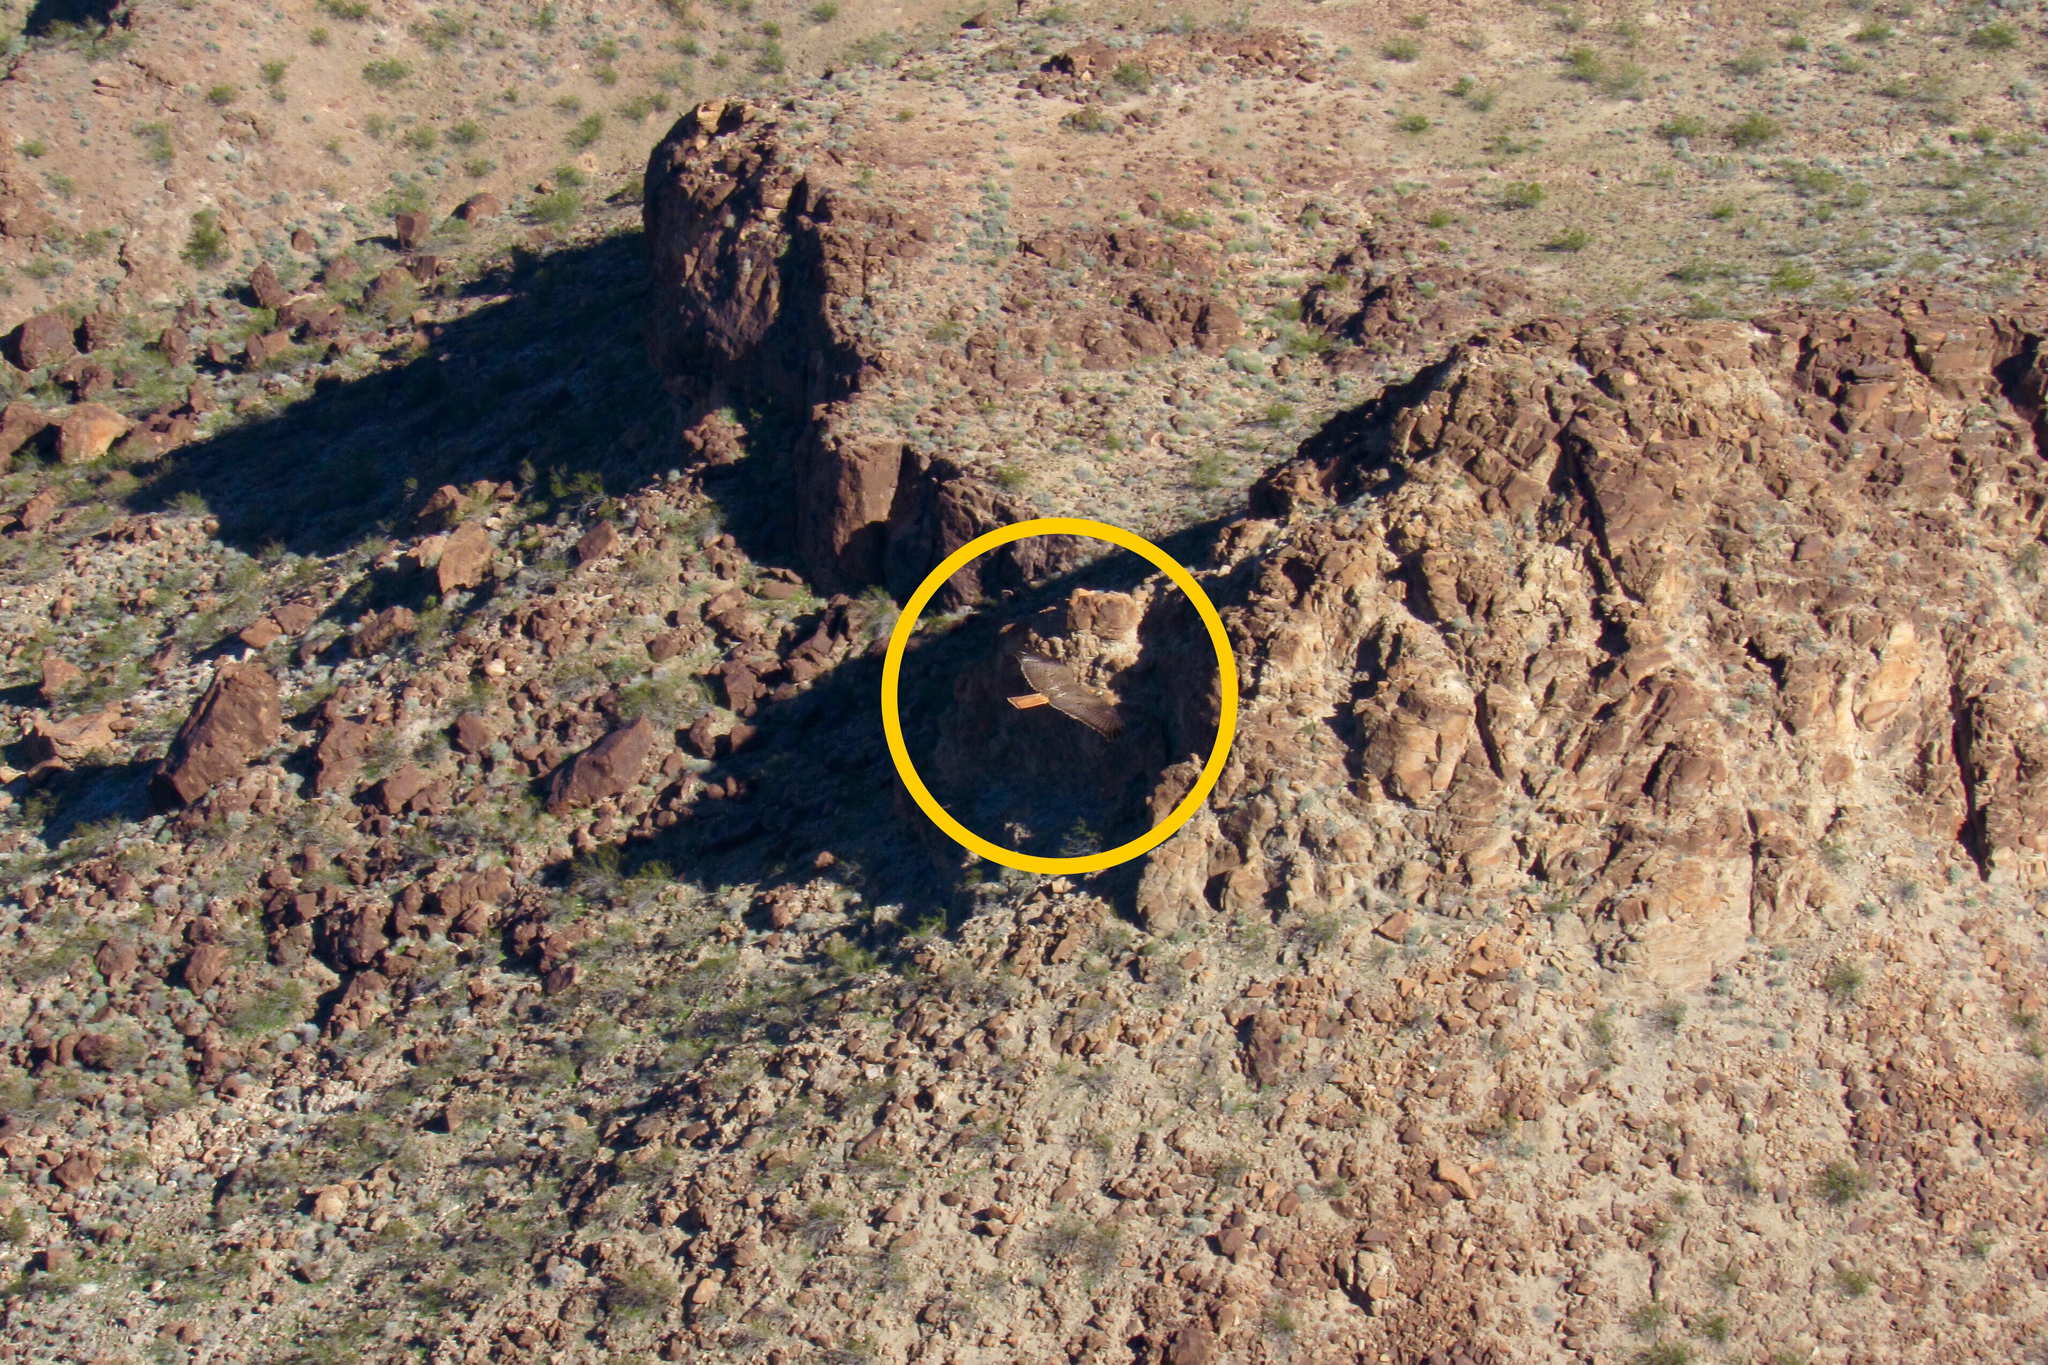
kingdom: Animalia
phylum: Chordata
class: Aves
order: Accipitriformes
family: Accipitridae
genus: Buteo
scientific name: Buteo jamaicensis
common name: Red-tailed hawk
